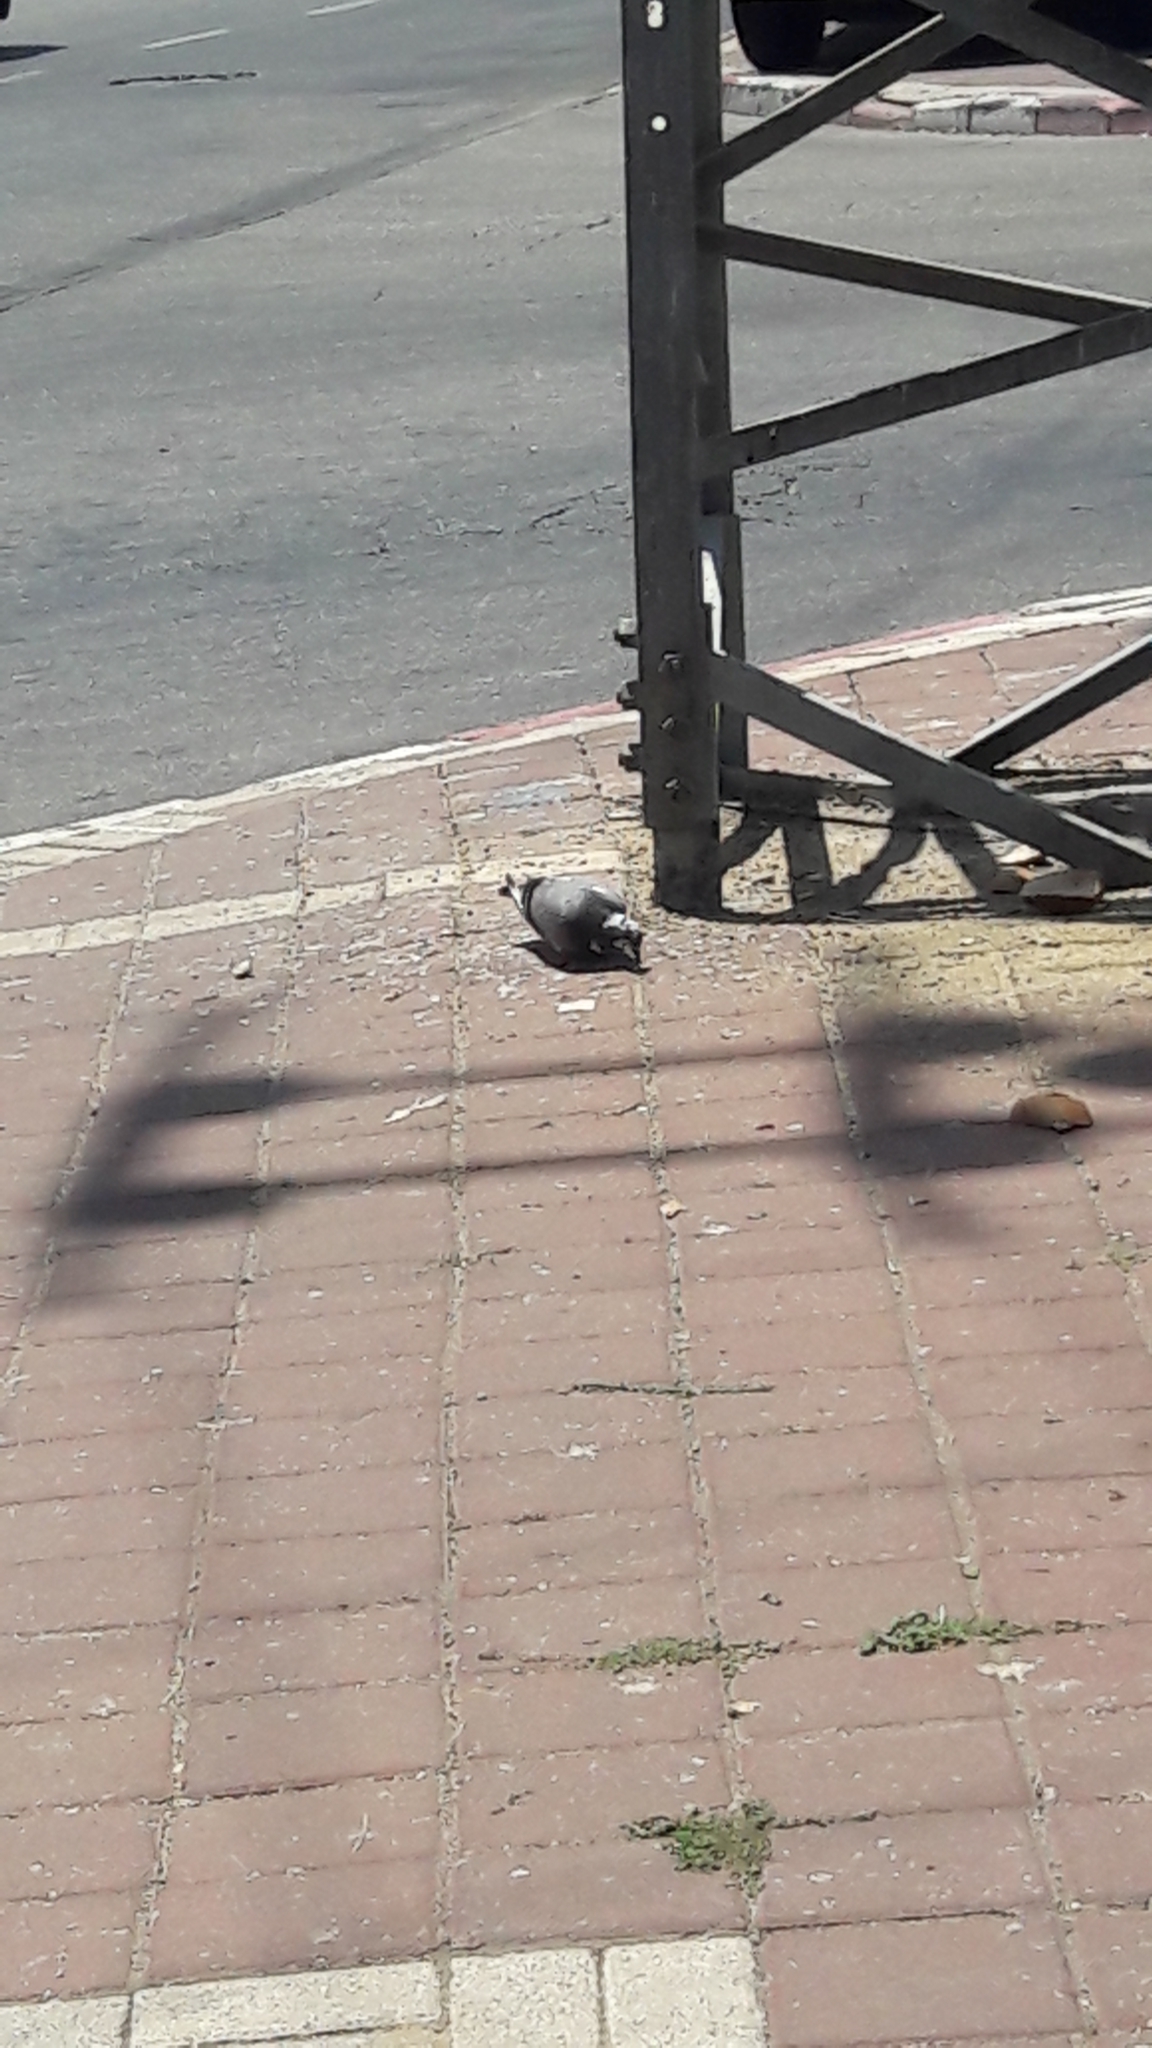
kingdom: Animalia
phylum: Chordata
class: Aves
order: Columbiformes
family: Columbidae
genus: Columba
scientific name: Columba livia
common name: Rock pigeon
